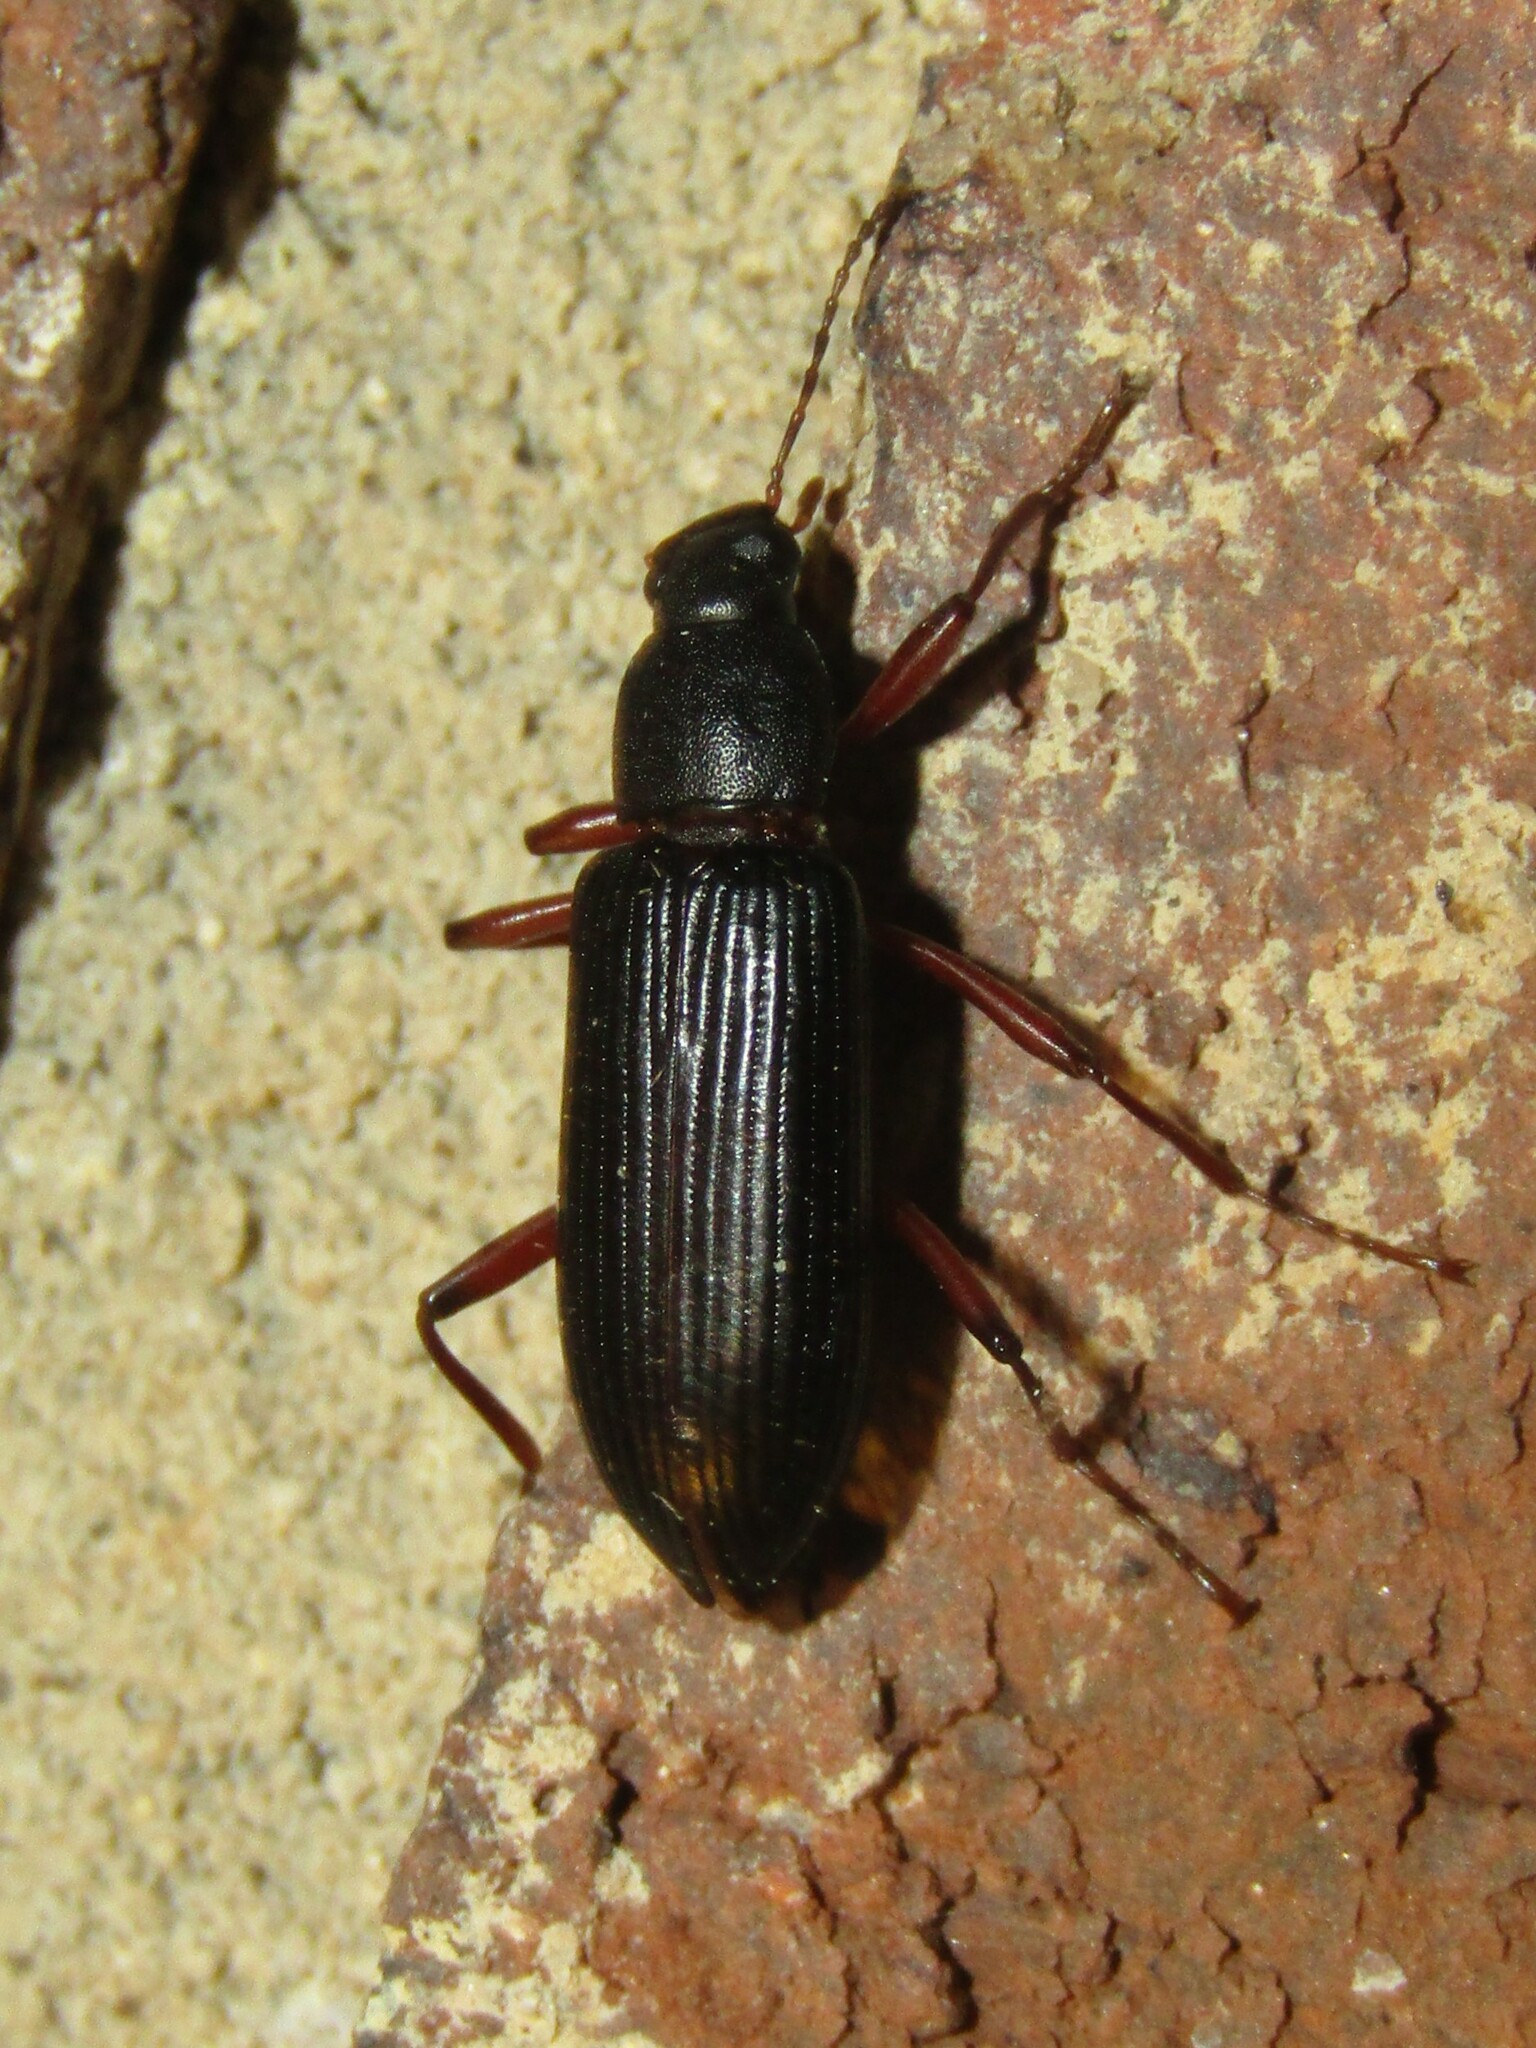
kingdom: Animalia
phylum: Arthropoda
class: Insecta
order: Coleoptera
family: Tenebrionidae
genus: Strongylium
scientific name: Strongylium tenuicolle
